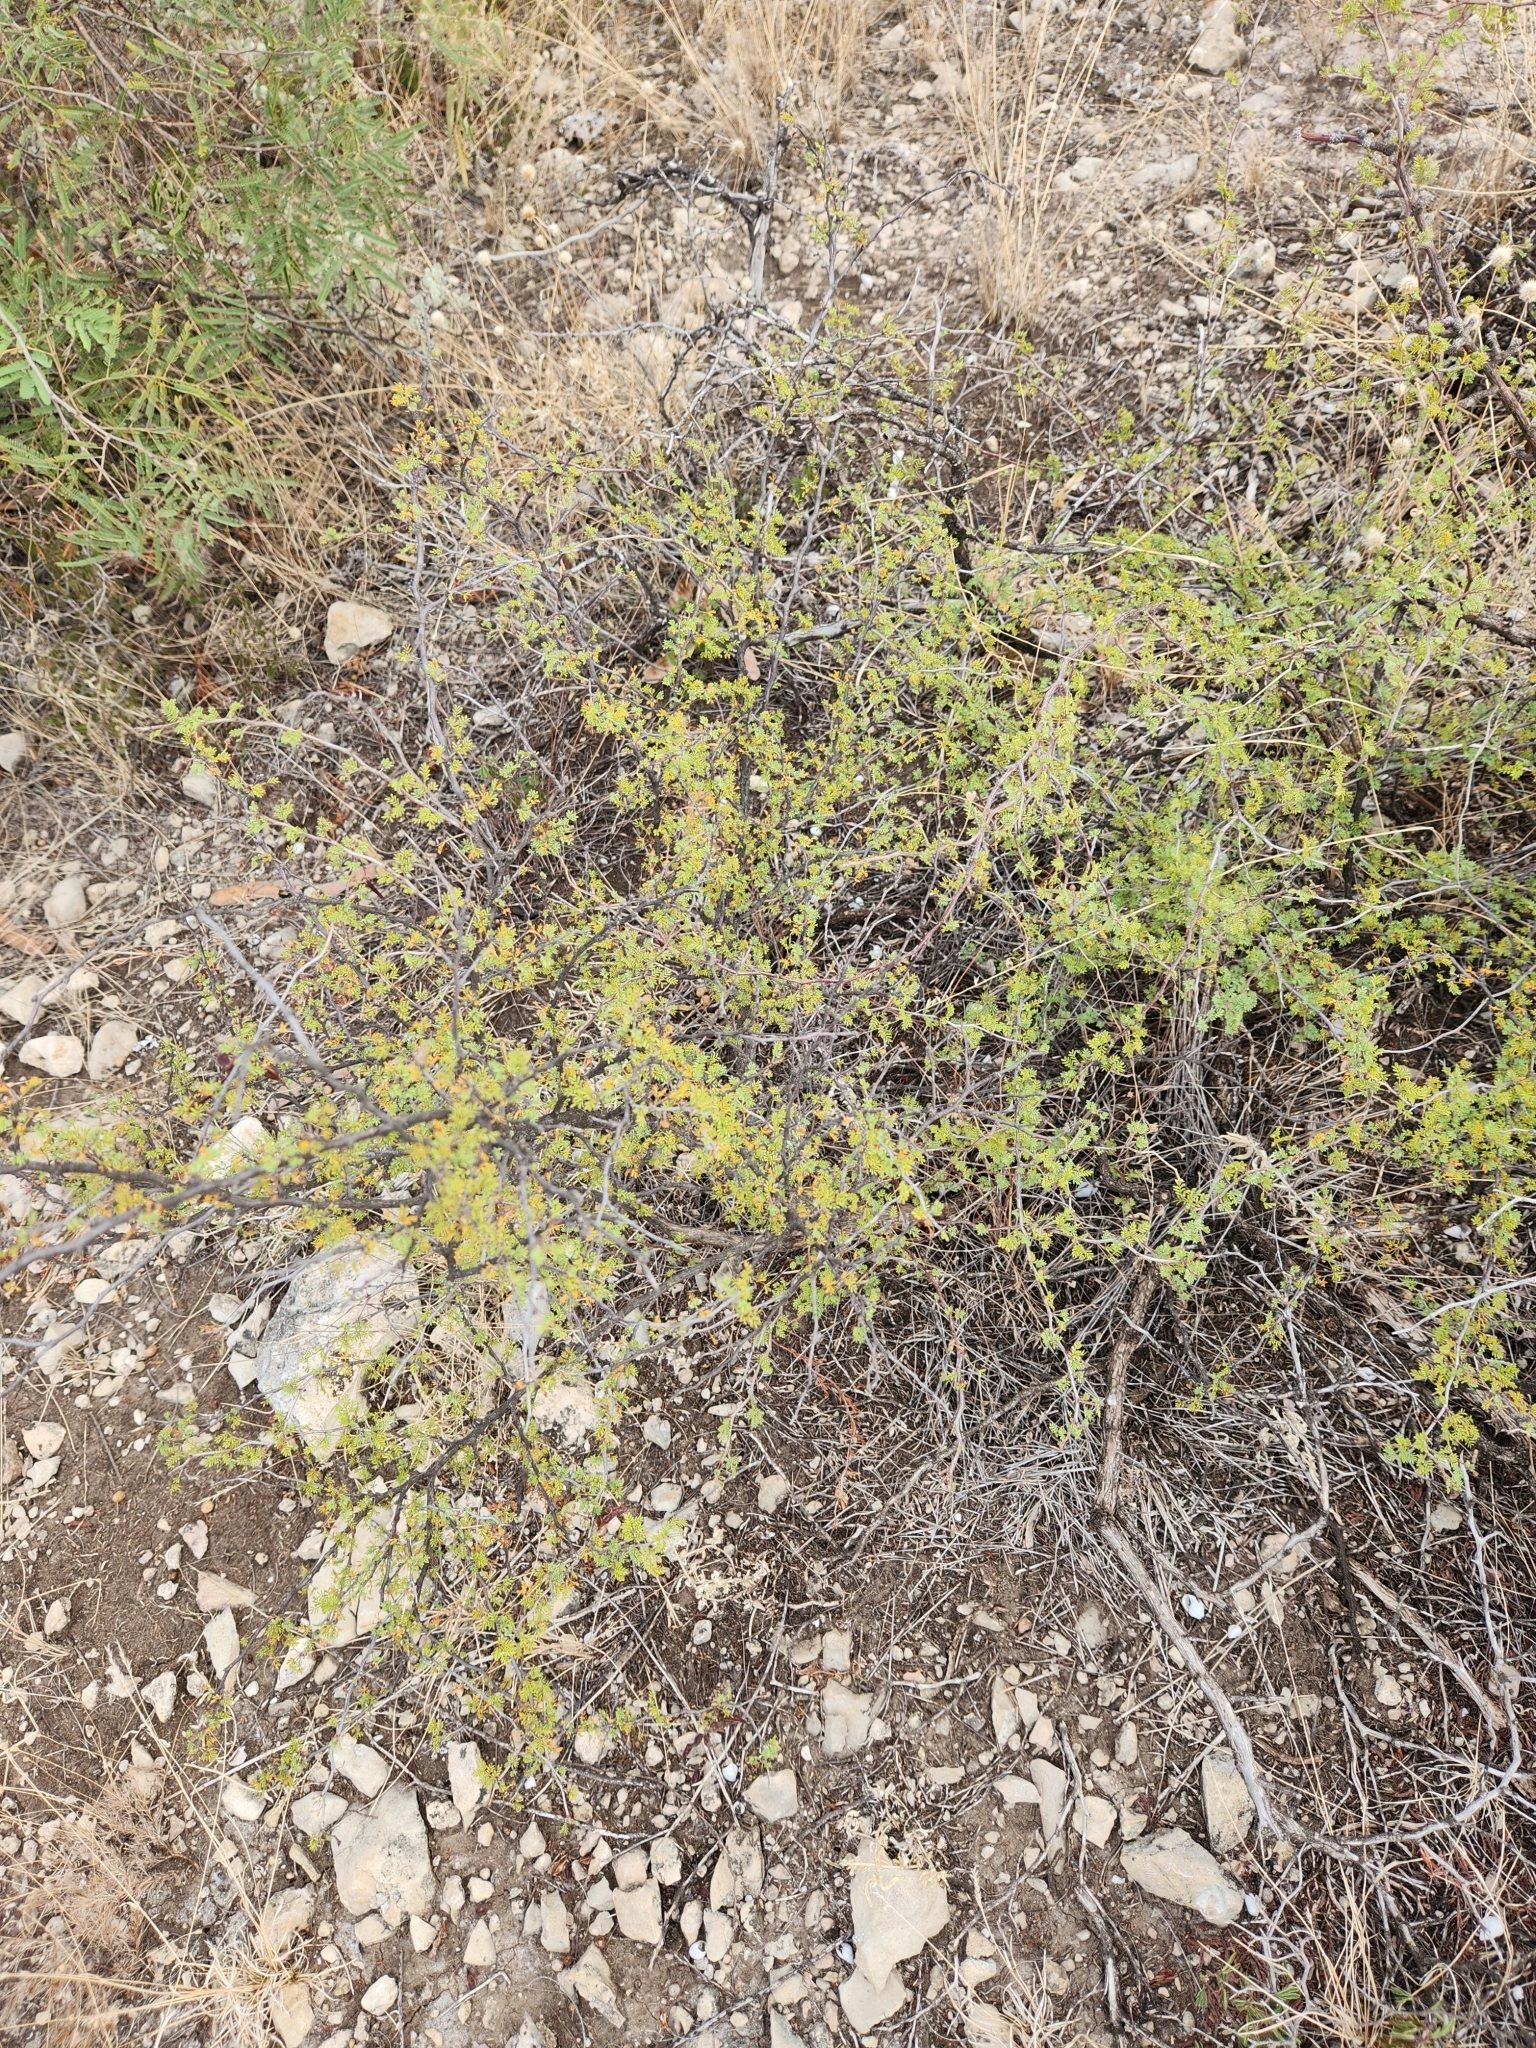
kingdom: Plantae
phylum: Tracheophyta
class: Magnoliopsida
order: Fabales
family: Fabaceae
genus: Mimosa
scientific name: Mimosa texana
